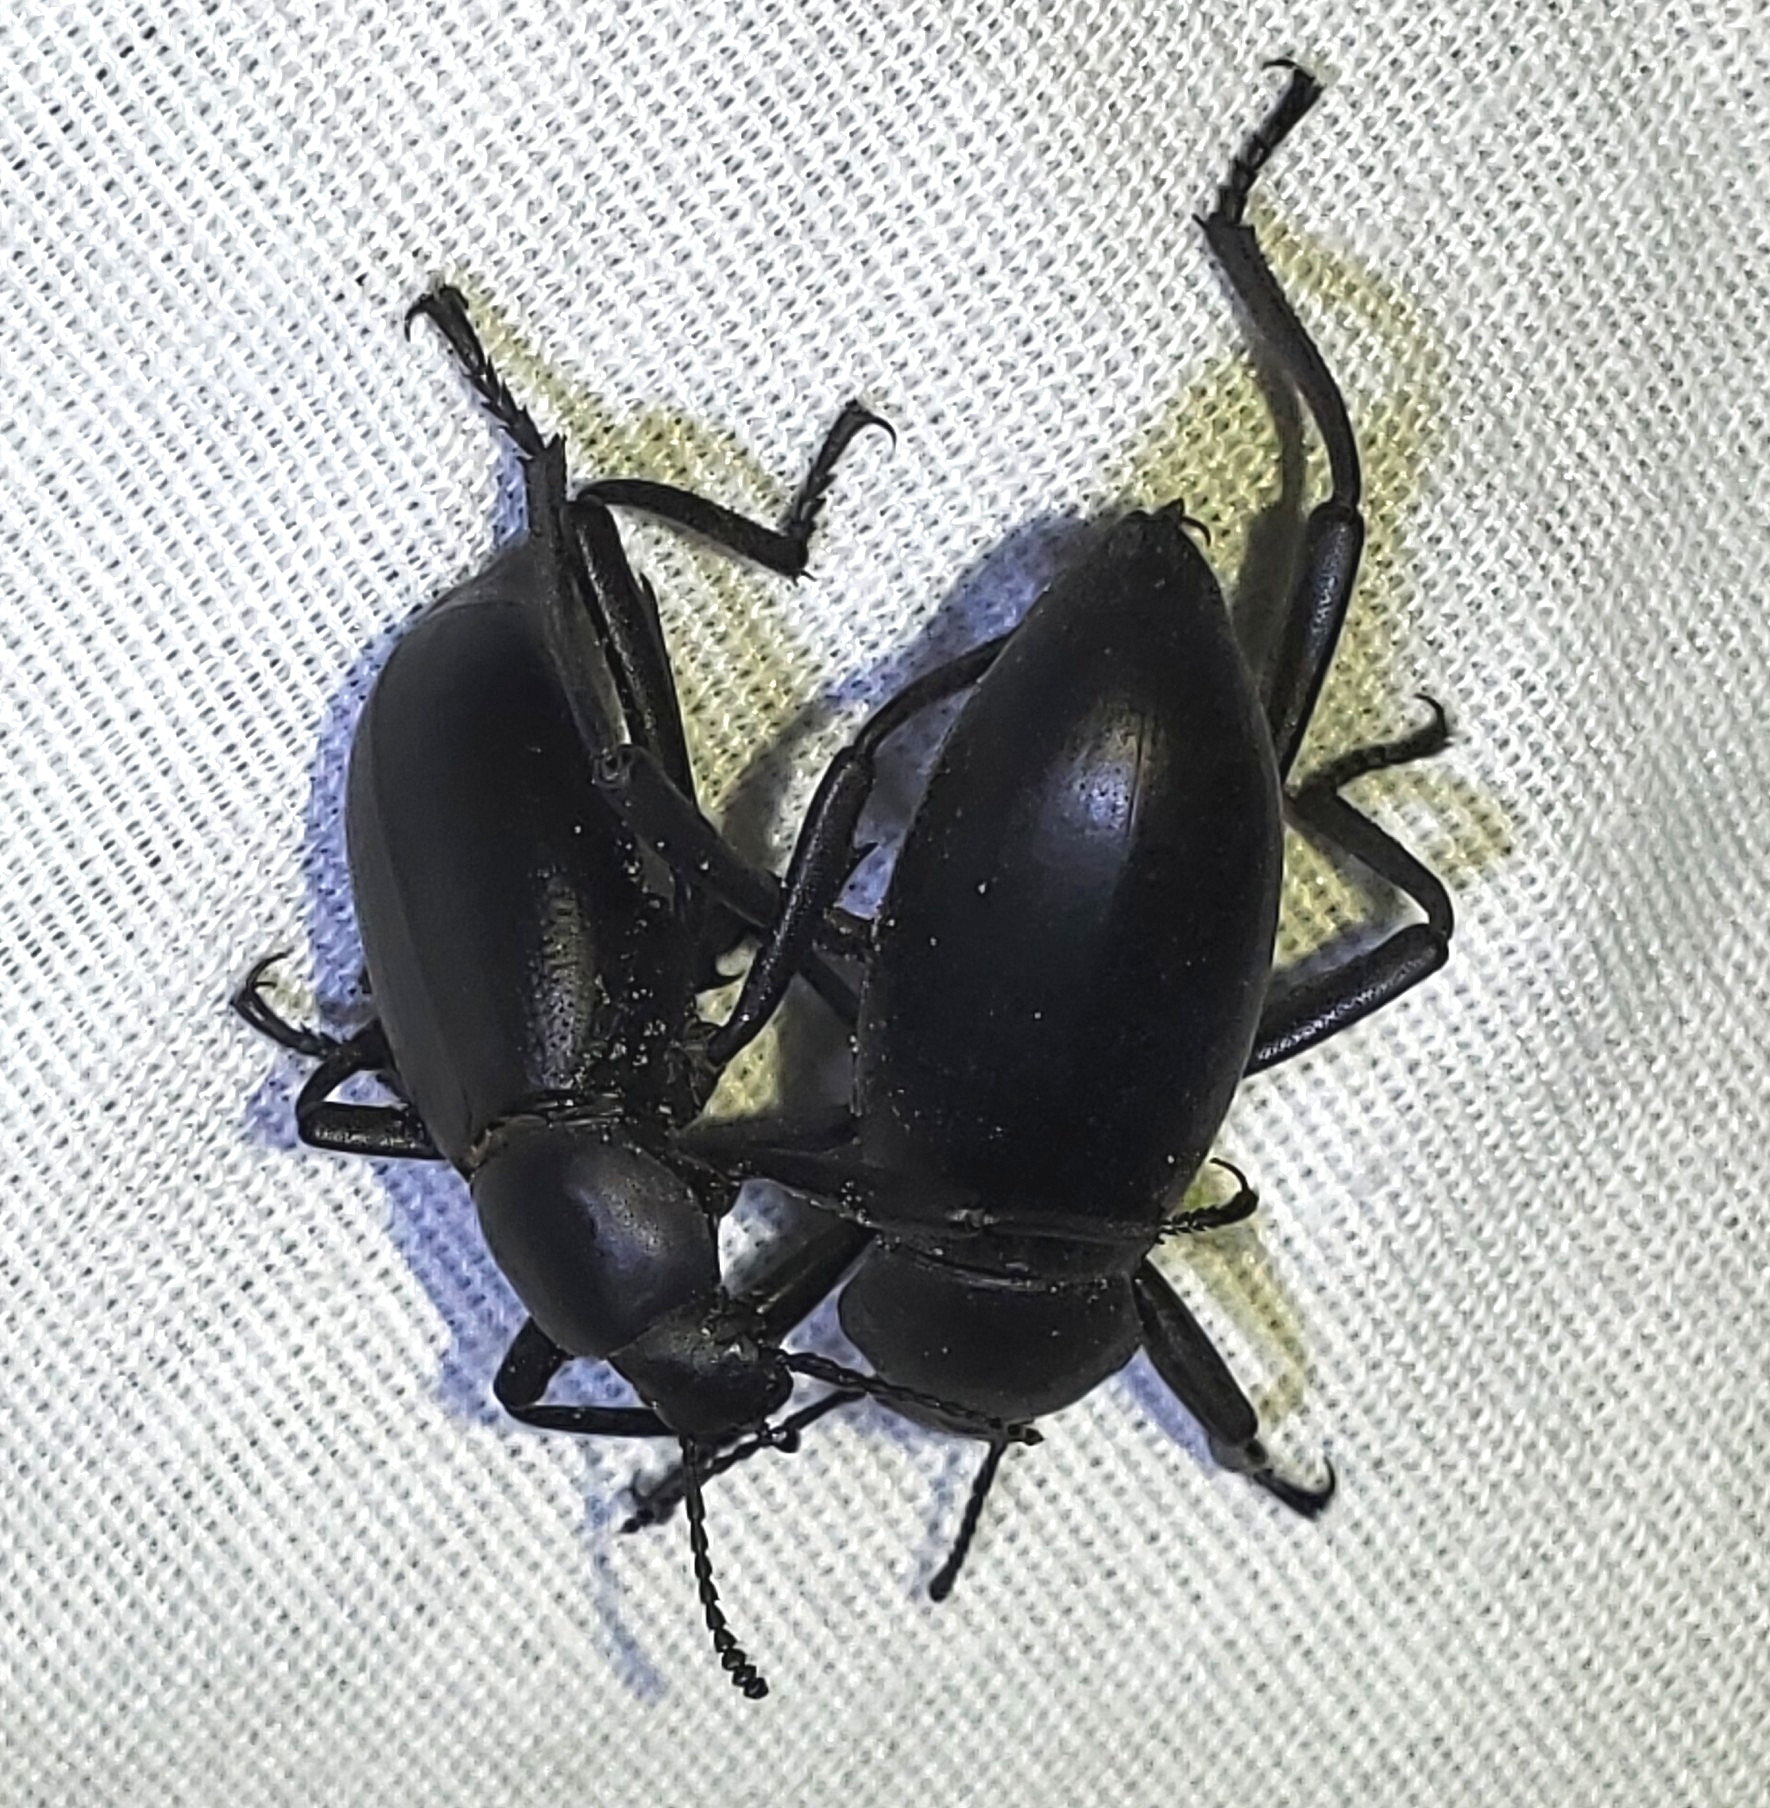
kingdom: Animalia
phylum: Arthropoda
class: Insecta
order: Coleoptera
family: Tenebrionidae
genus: Eleodes
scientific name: Eleodes armata
